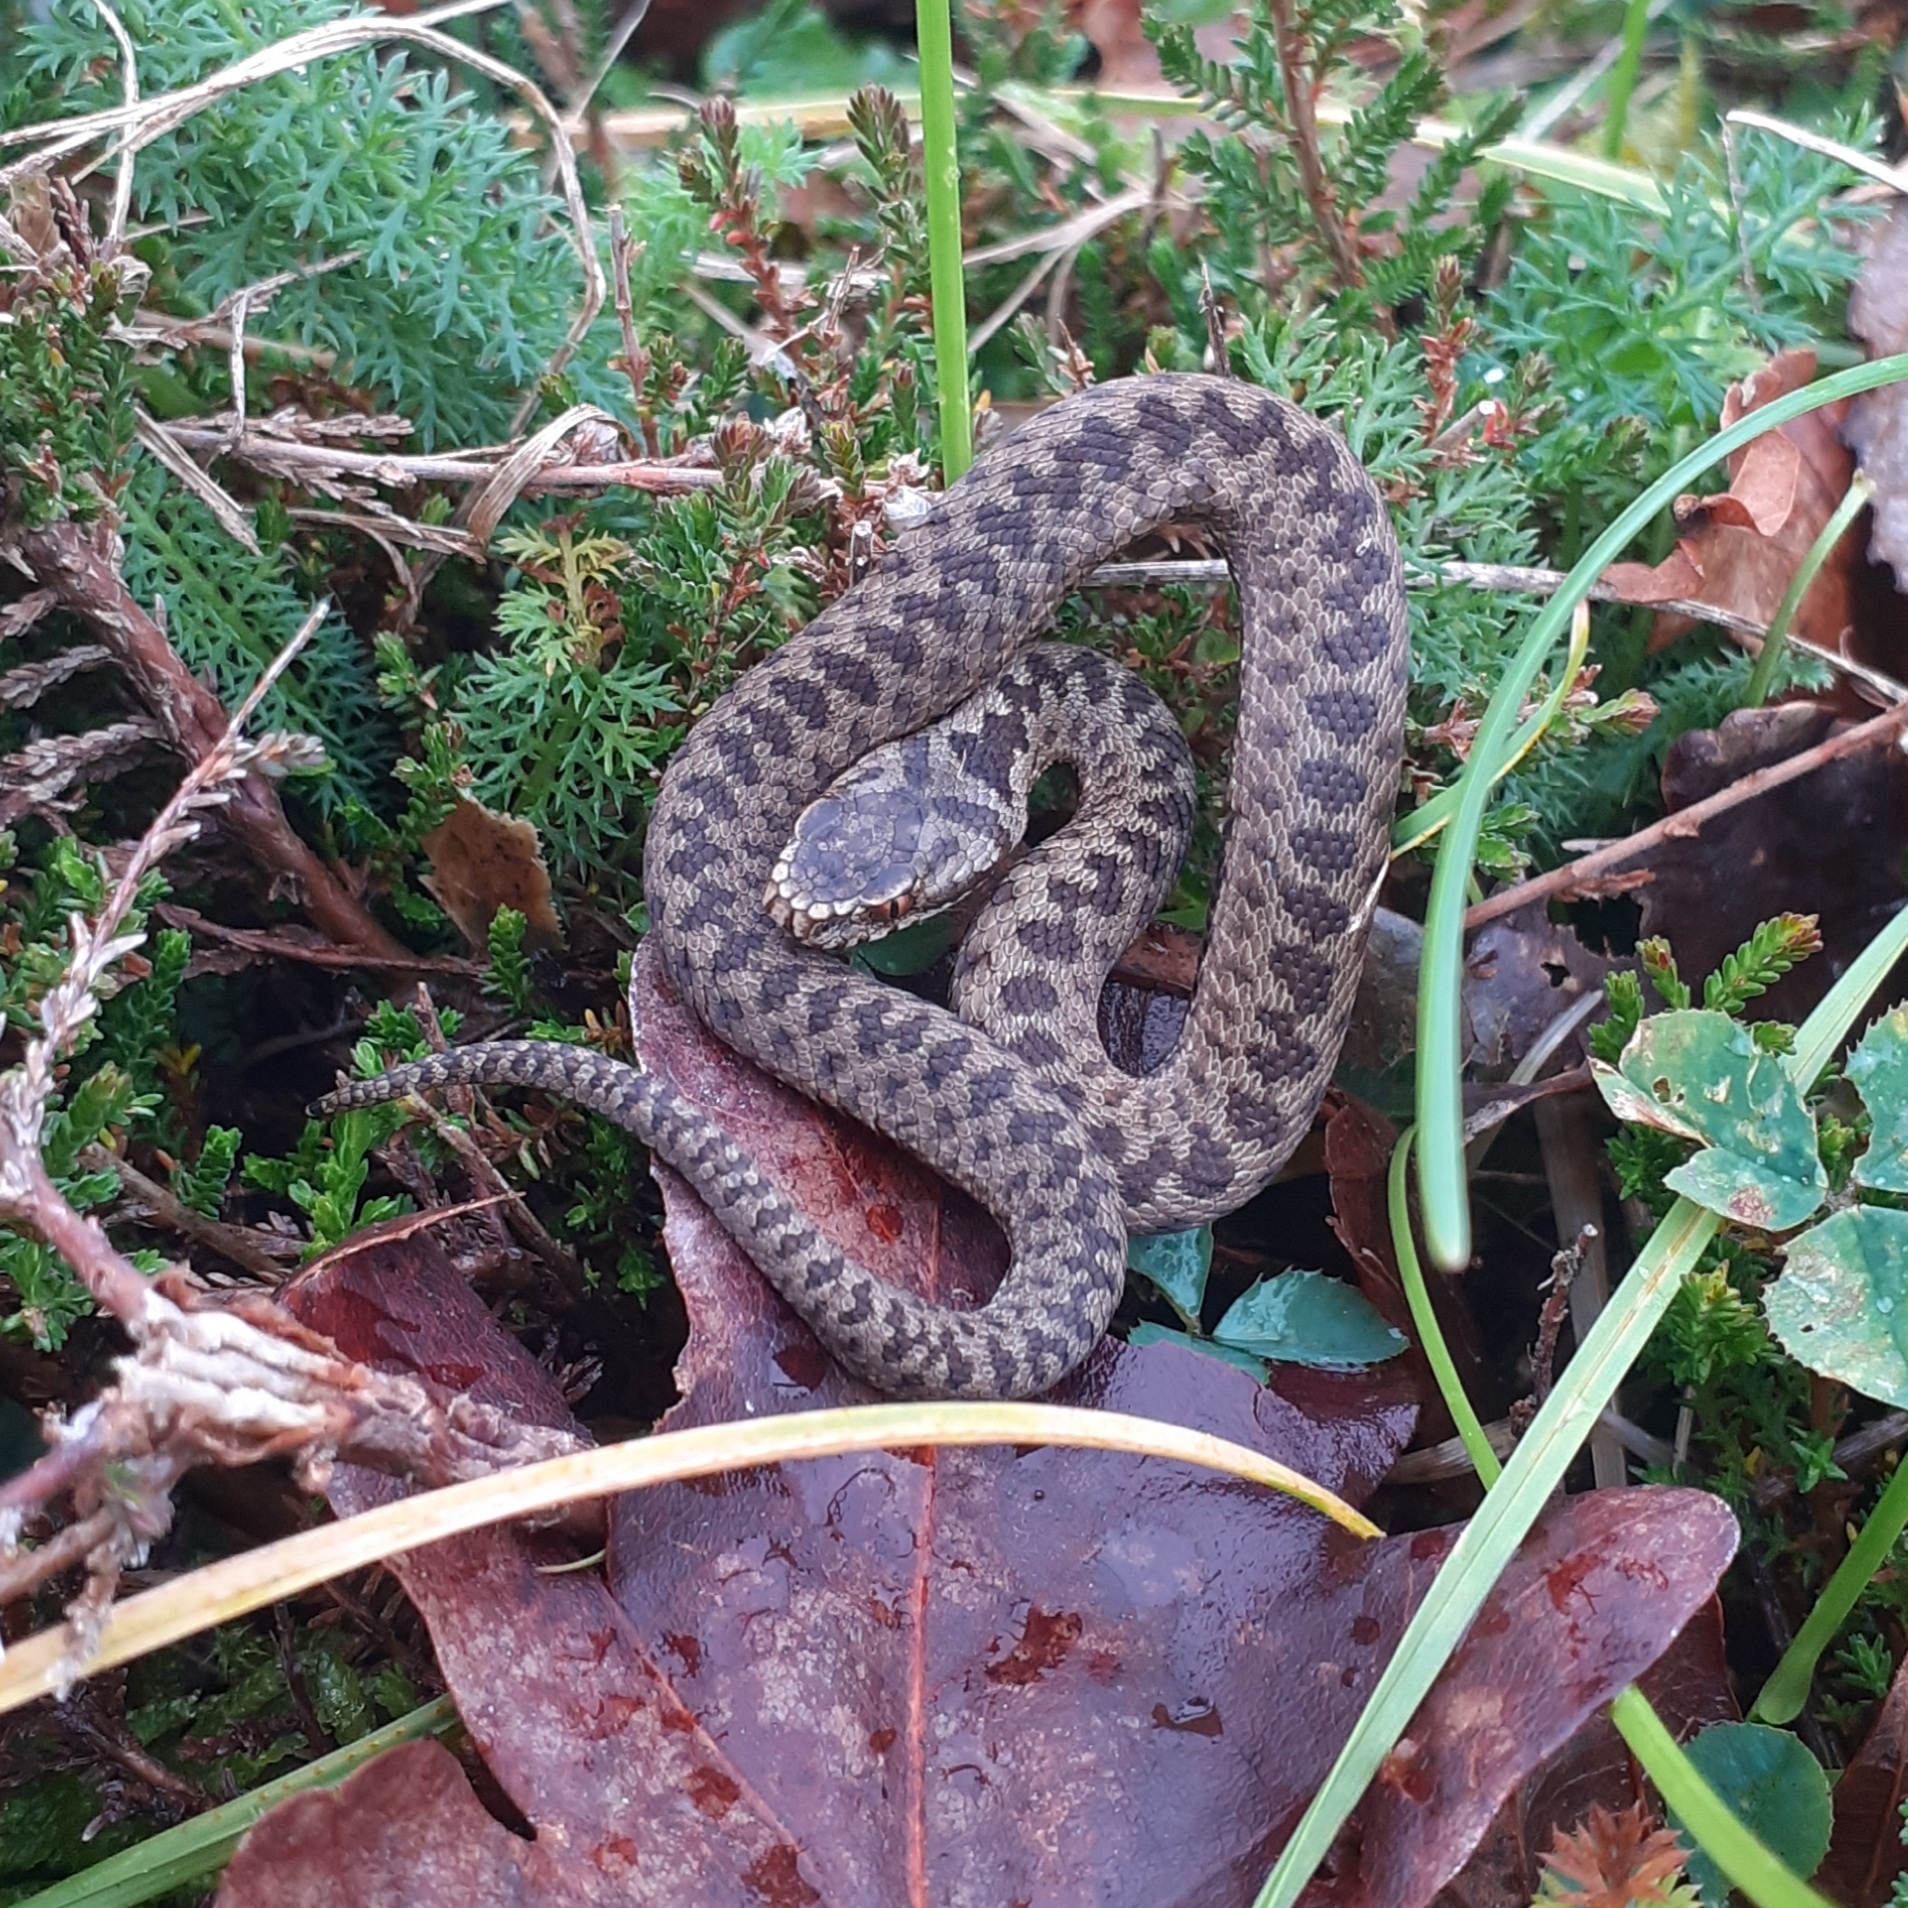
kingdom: Animalia
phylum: Chordata
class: Squamata
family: Viperidae
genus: Vipera
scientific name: Vipera berus
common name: Adder
